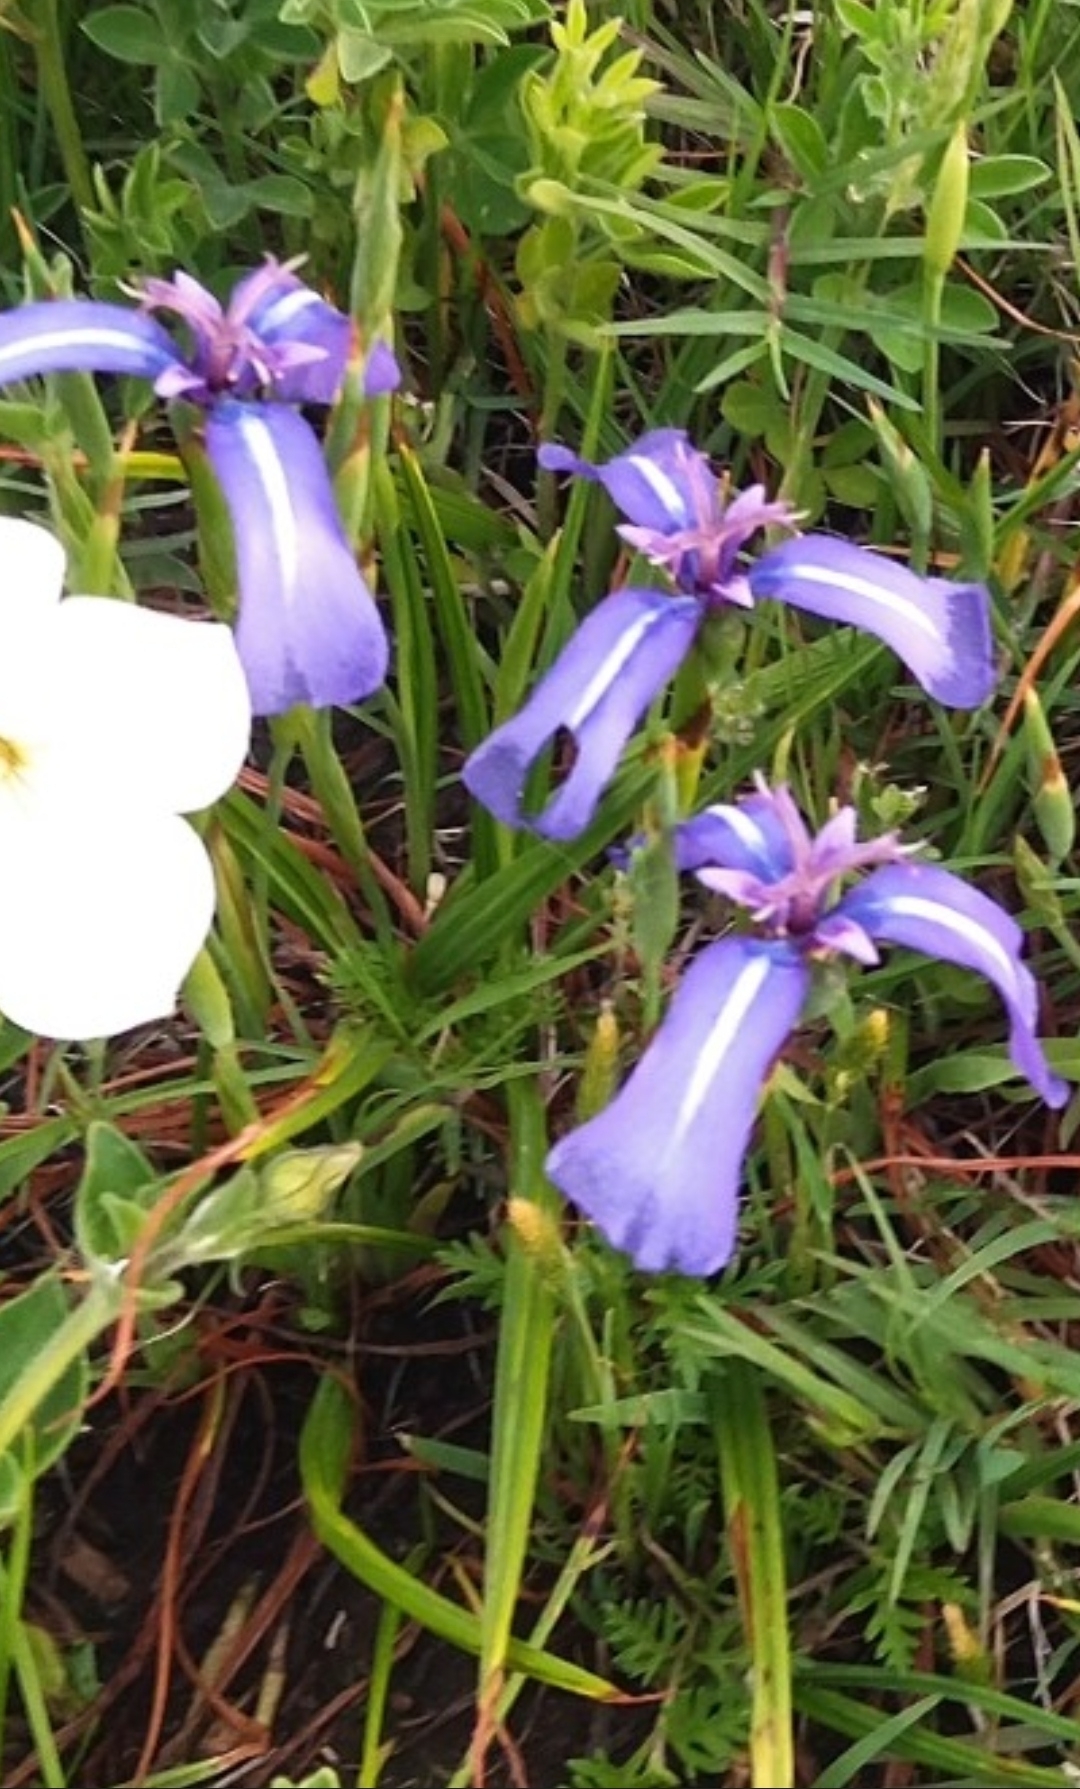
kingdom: Plantae
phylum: Tracheophyta
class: Liliopsida
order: Asparagales
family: Iridaceae
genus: Herbertia
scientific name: Herbertia pulchella
